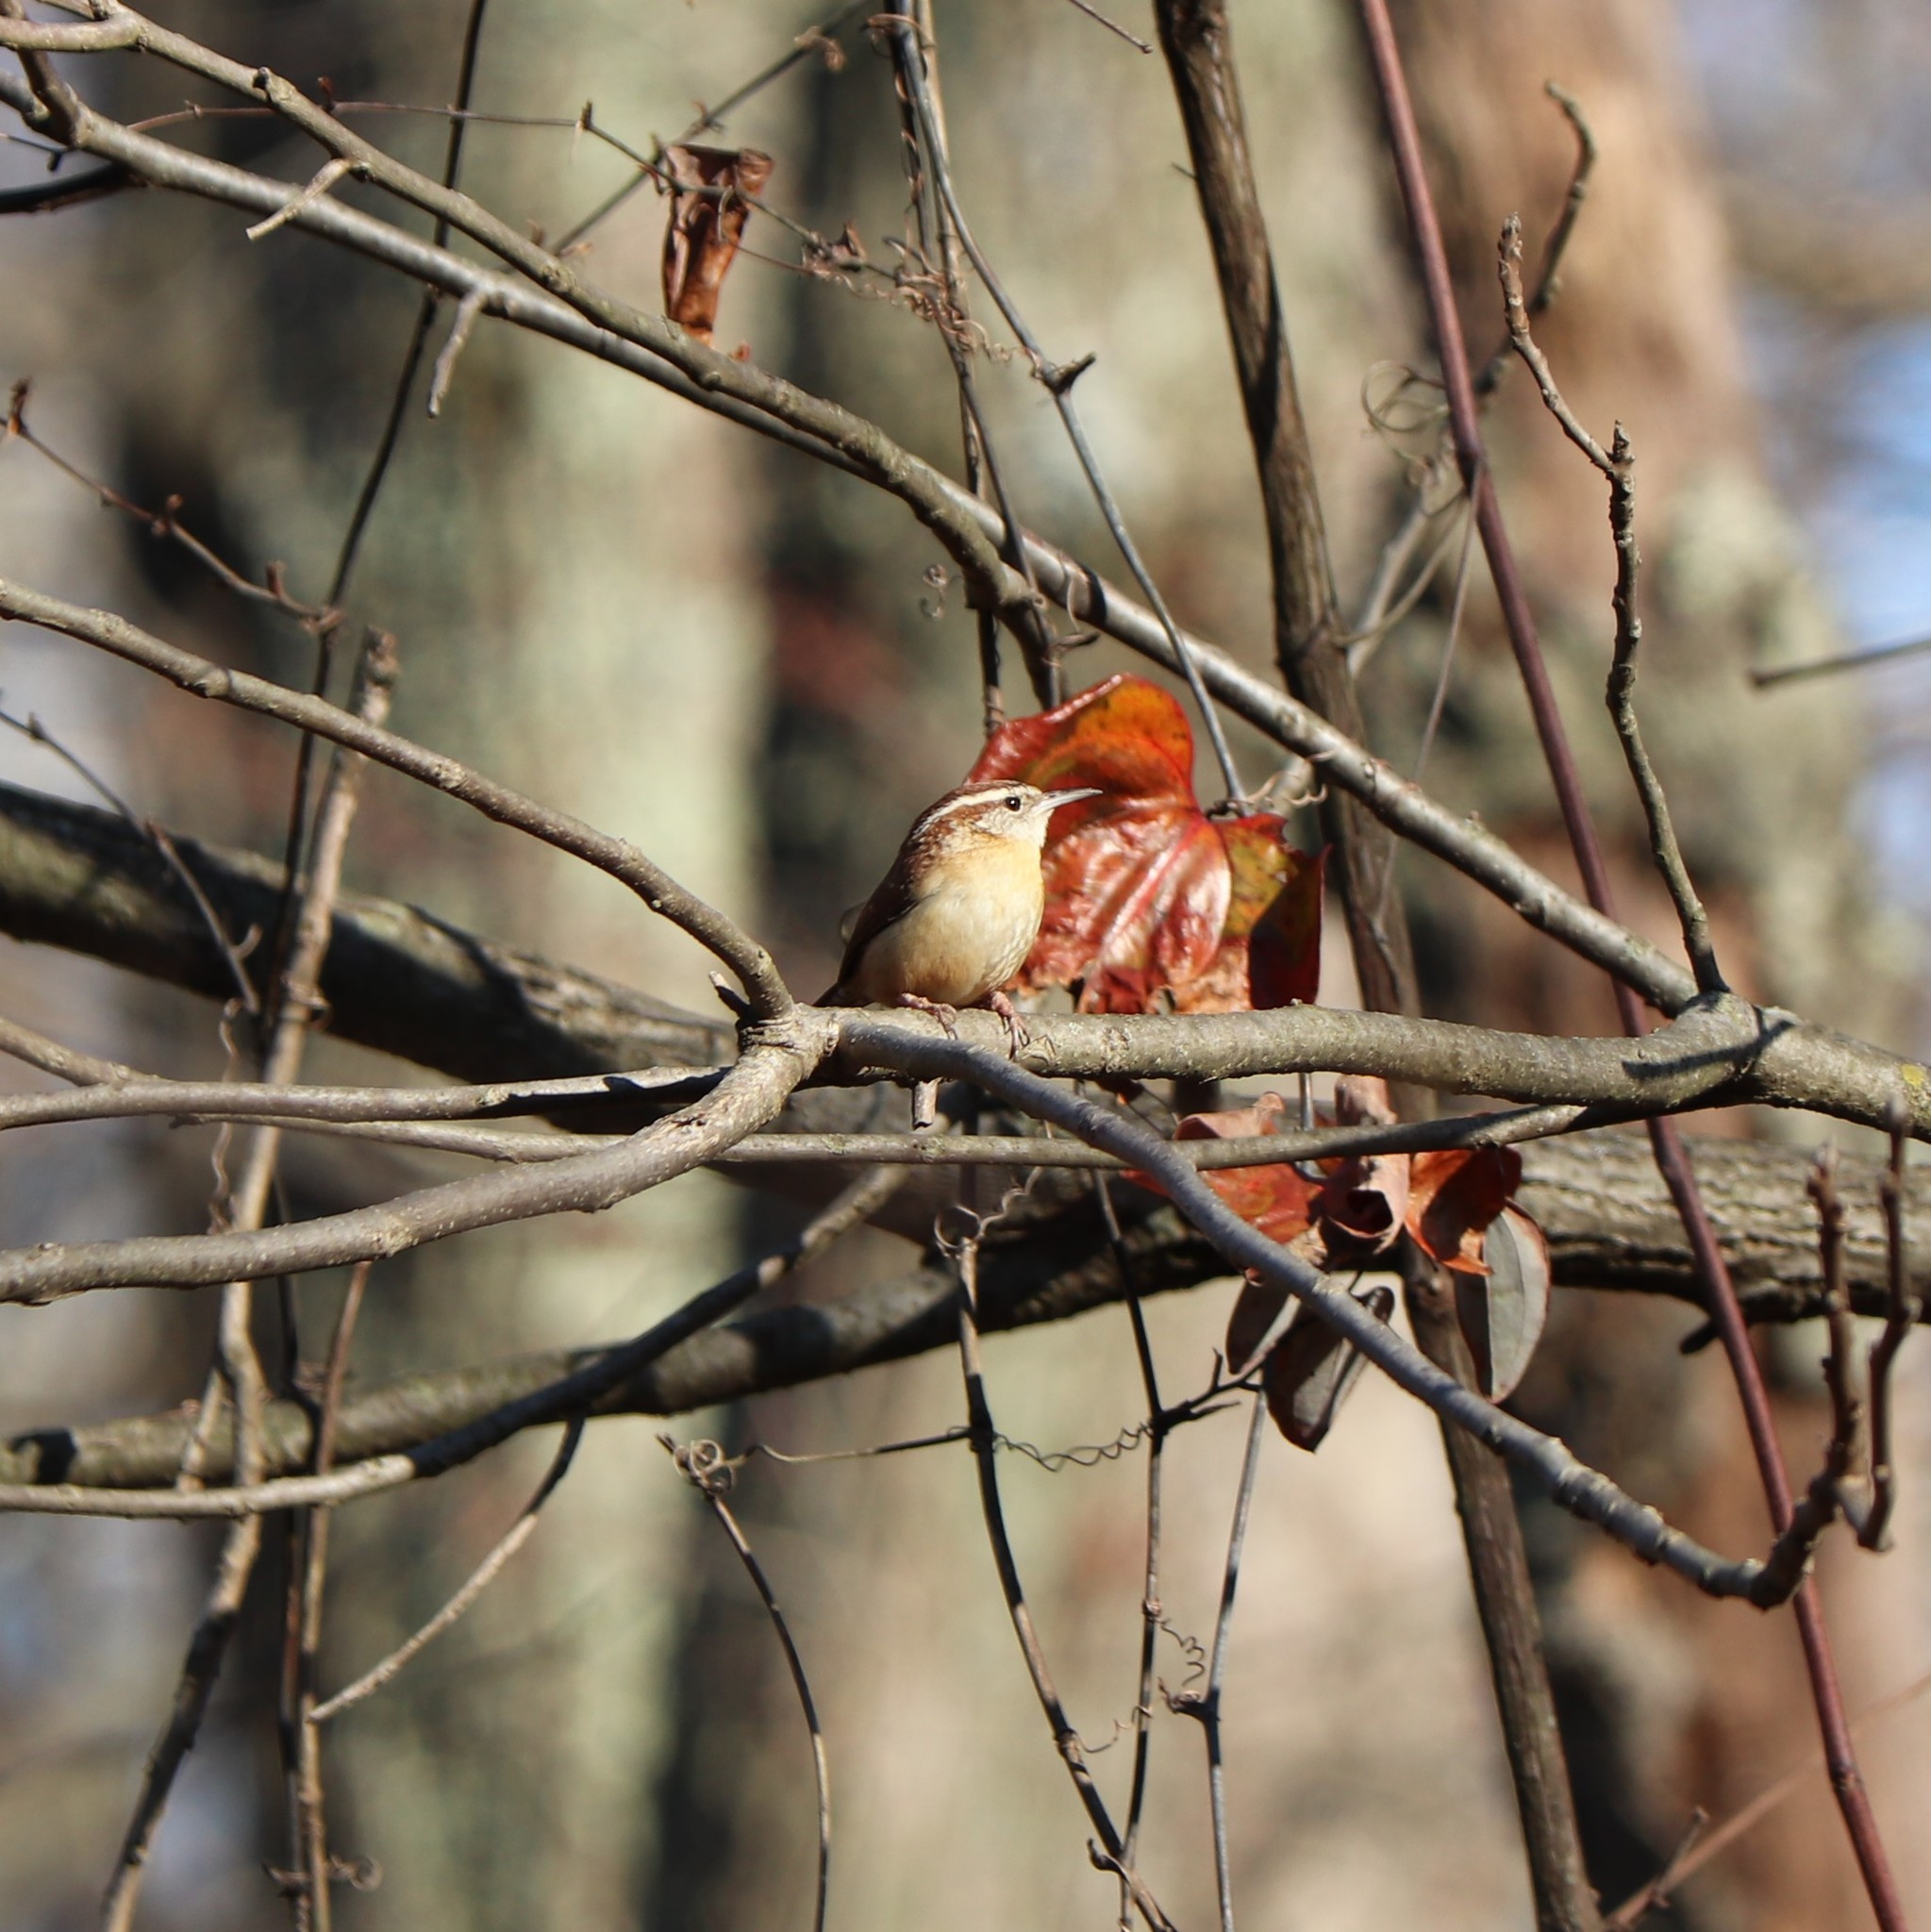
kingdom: Animalia
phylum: Chordata
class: Aves
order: Passeriformes
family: Troglodytidae
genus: Thryothorus
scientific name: Thryothorus ludovicianus
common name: Carolina wren
